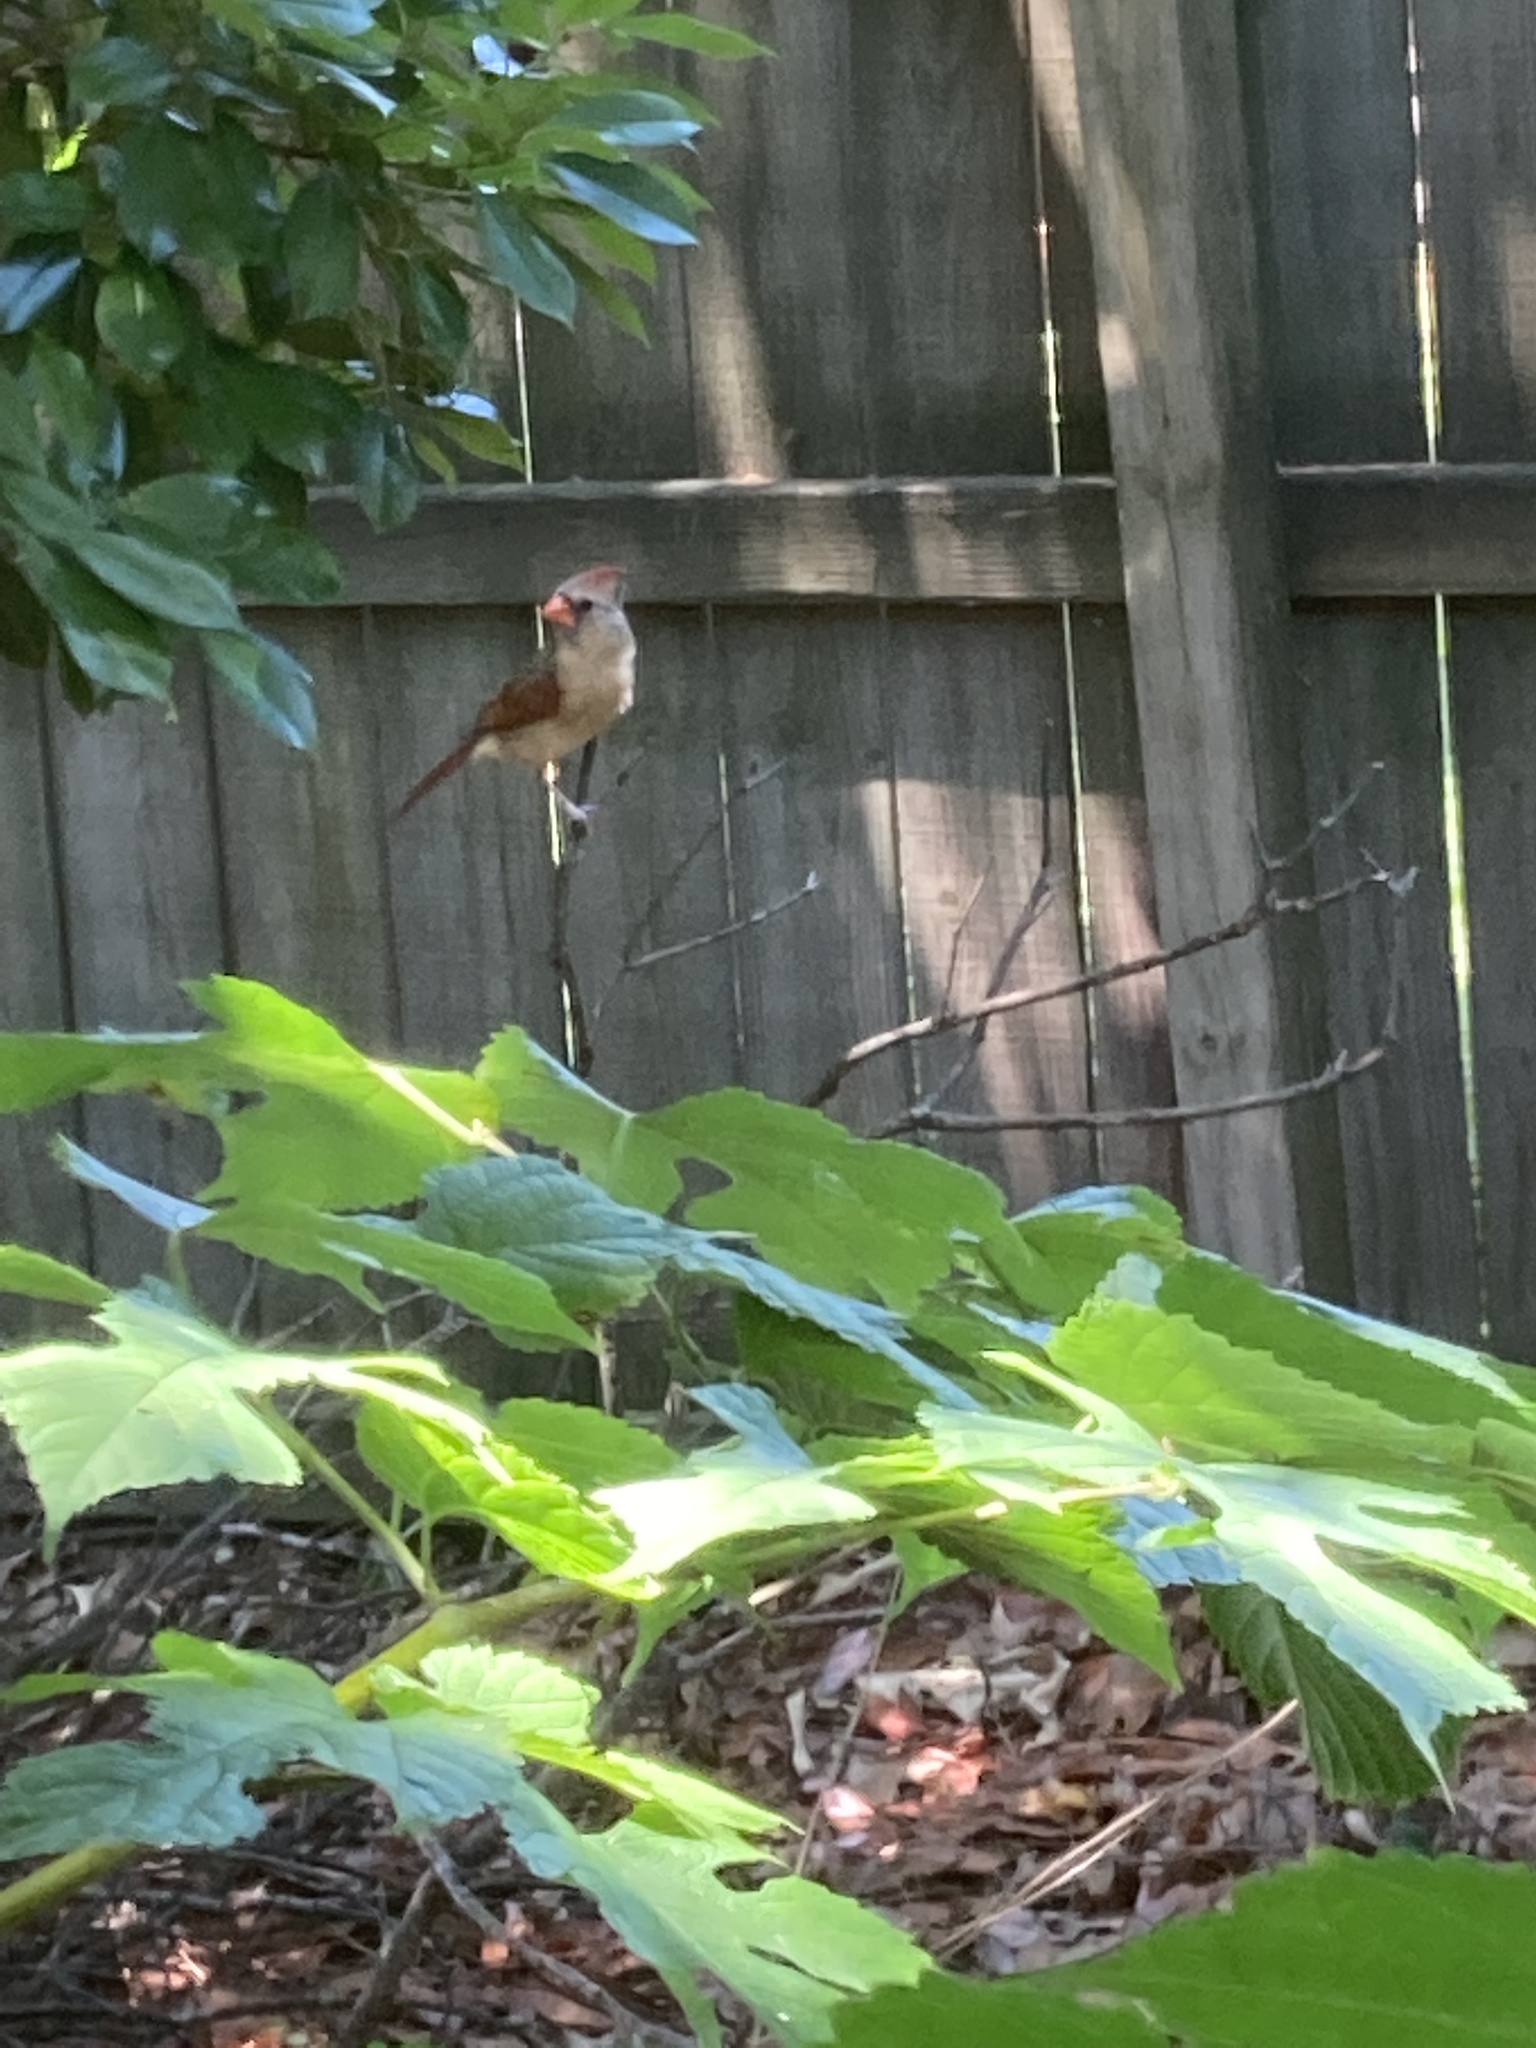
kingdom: Animalia
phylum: Chordata
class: Aves
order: Passeriformes
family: Cardinalidae
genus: Cardinalis
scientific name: Cardinalis cardinalis
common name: Northern cardinal
